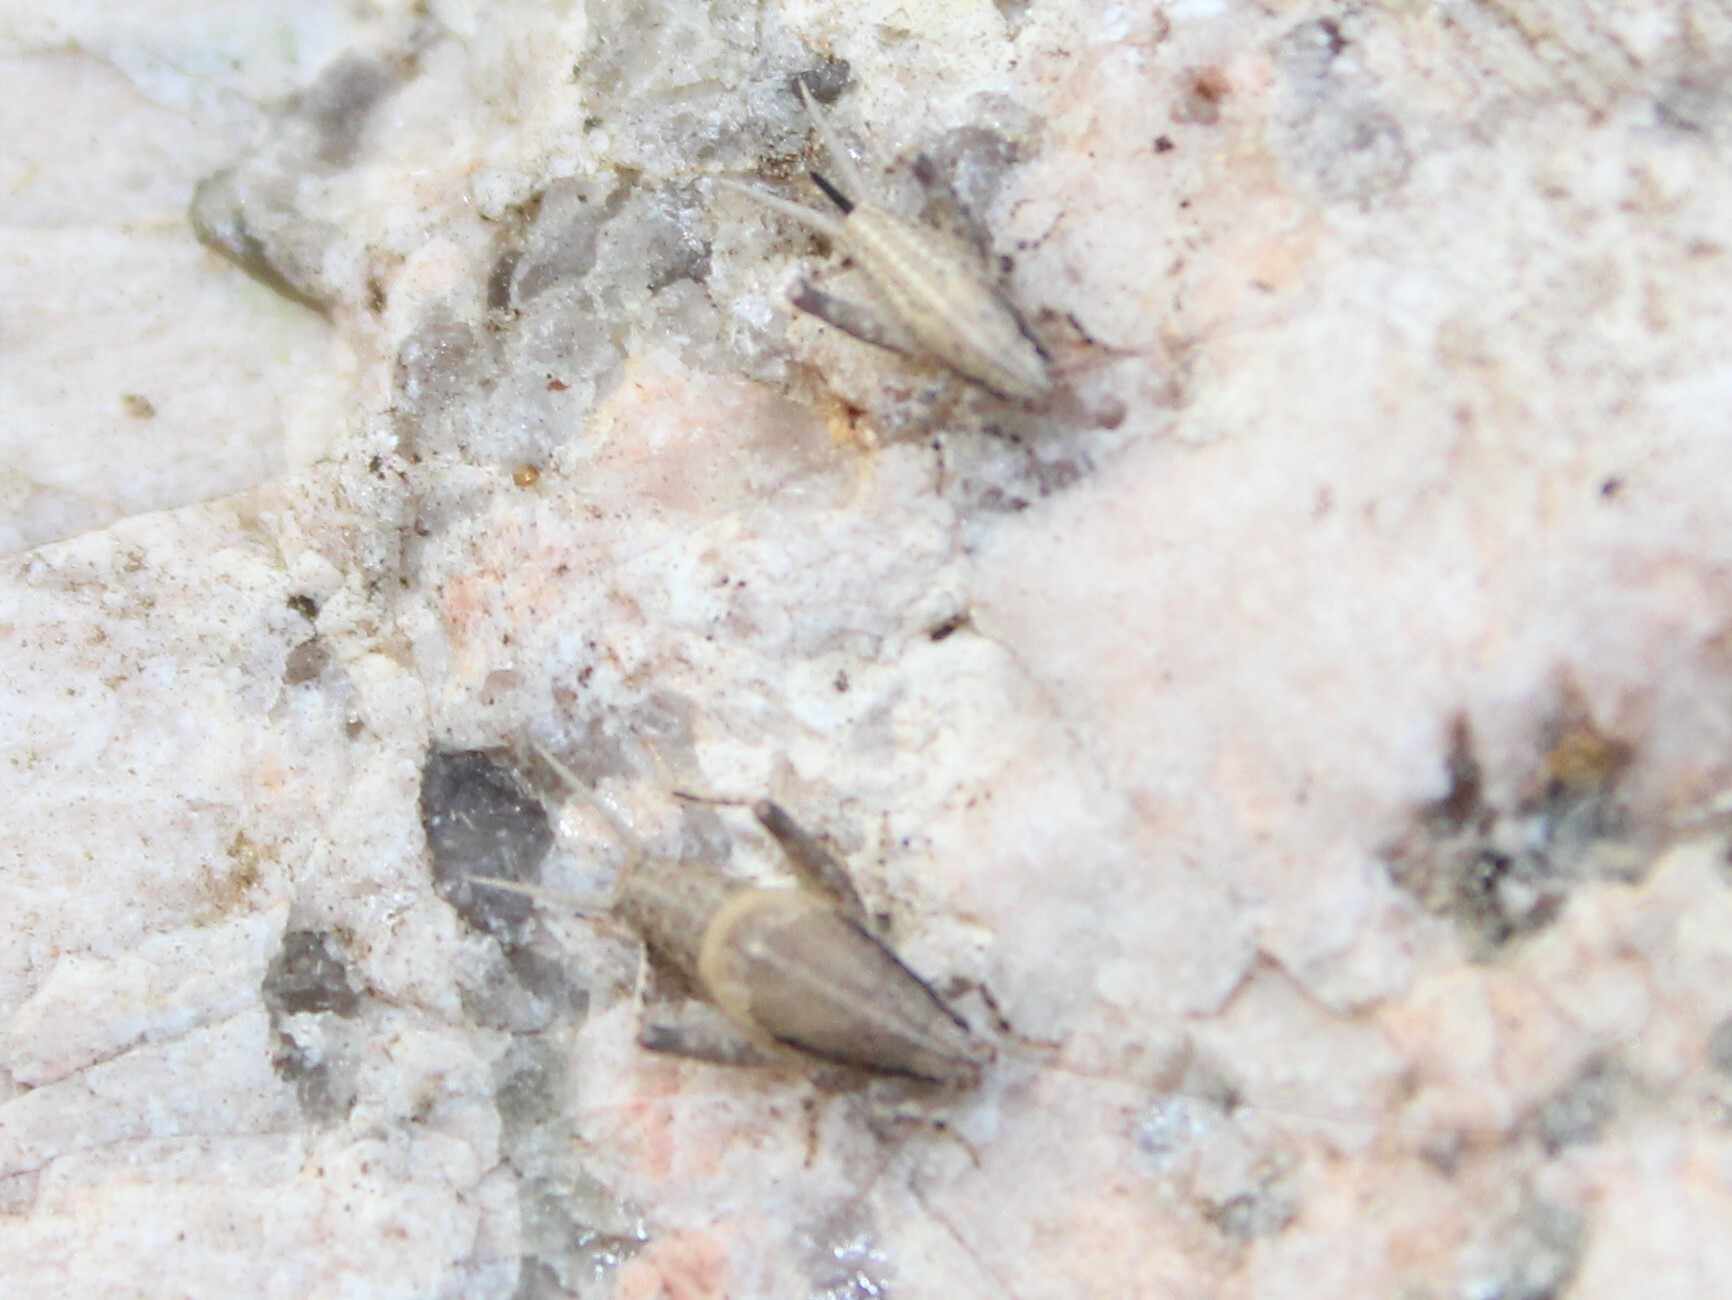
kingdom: Animalia
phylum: Arthropoda
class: Insecta
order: Orthoptera
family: Mogoplistidae
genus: Cycloptilum
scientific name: Cycloptilum pigrum
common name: Reluctant scaly cricket
